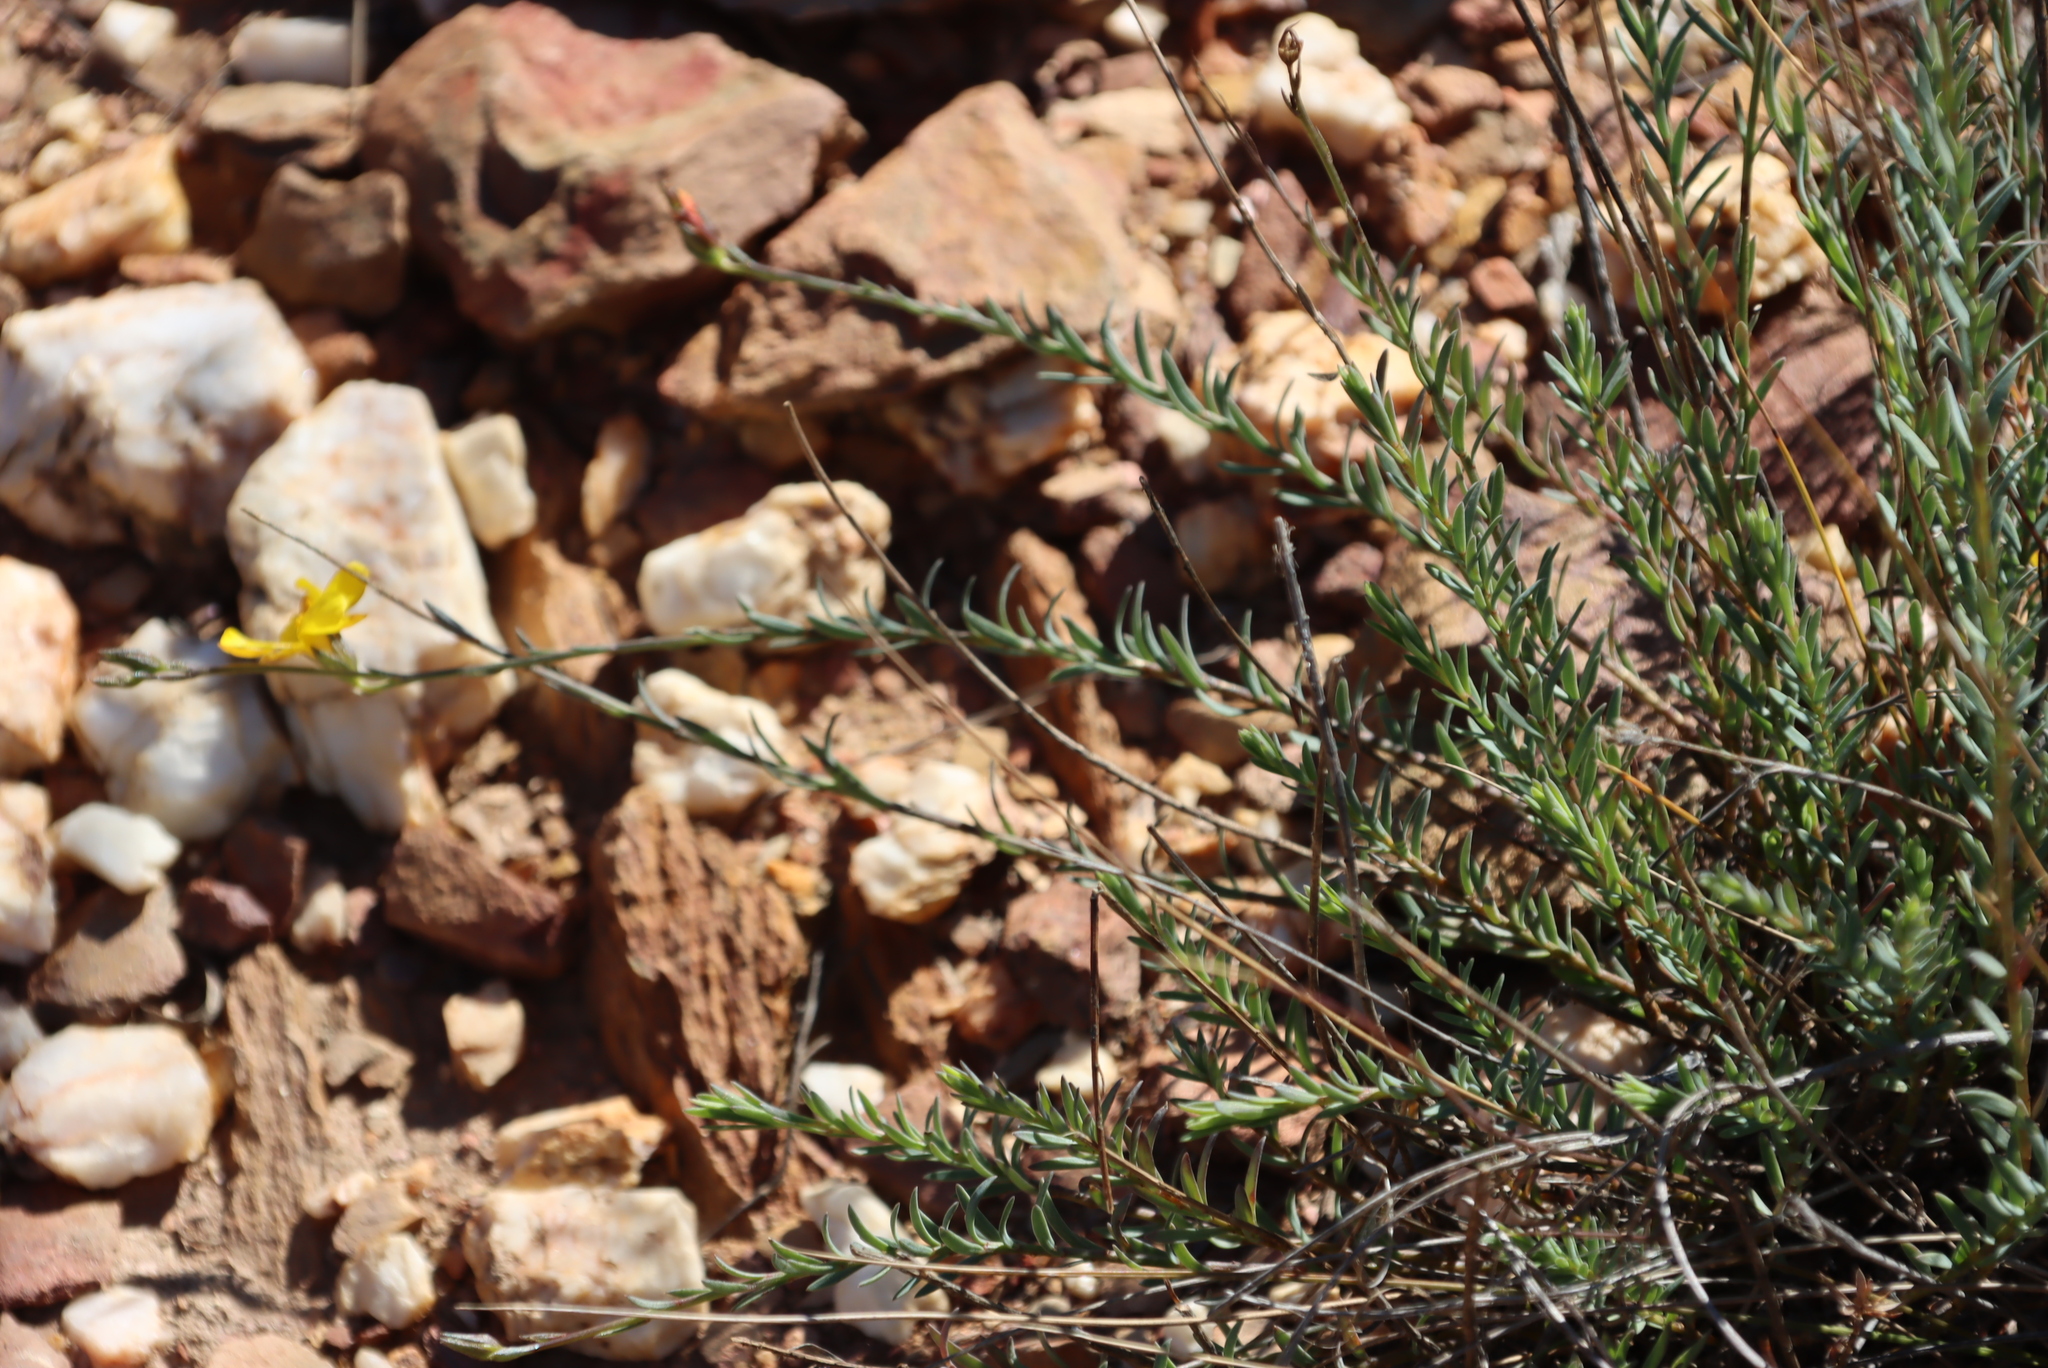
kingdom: Plantae
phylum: Tracheophyta
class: Magnoliopsida
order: Malpighiales
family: Linaceae
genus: Linum
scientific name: Linum africanum
